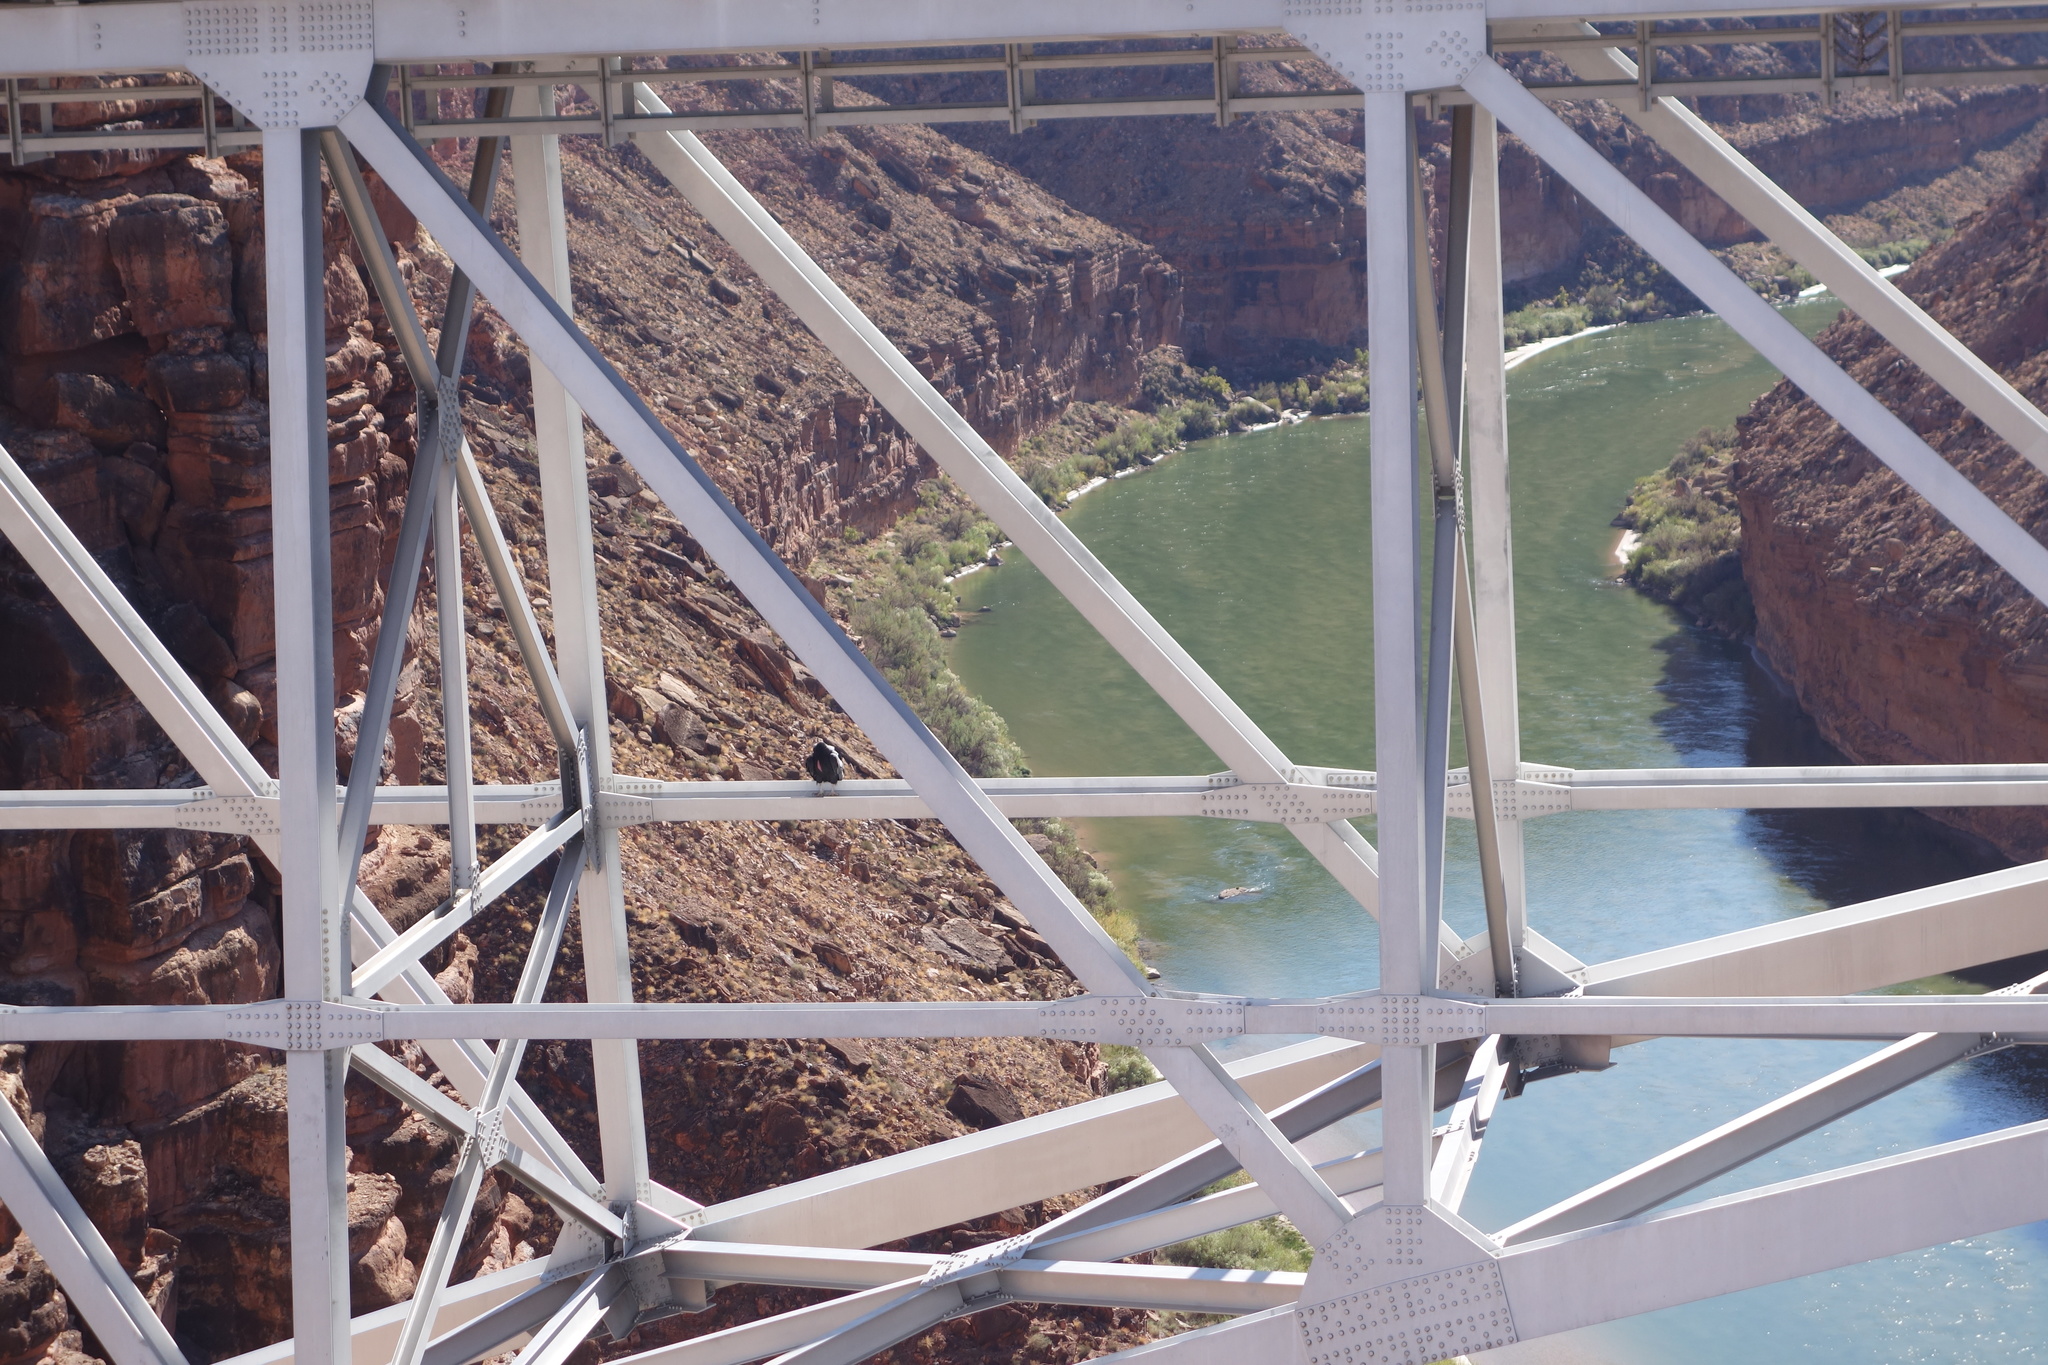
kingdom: Animalia
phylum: Chordata
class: Aves
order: Accipitriformes
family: Cathartidae
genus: Gymnogyps
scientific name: Gymnogyps californianus
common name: California condor
